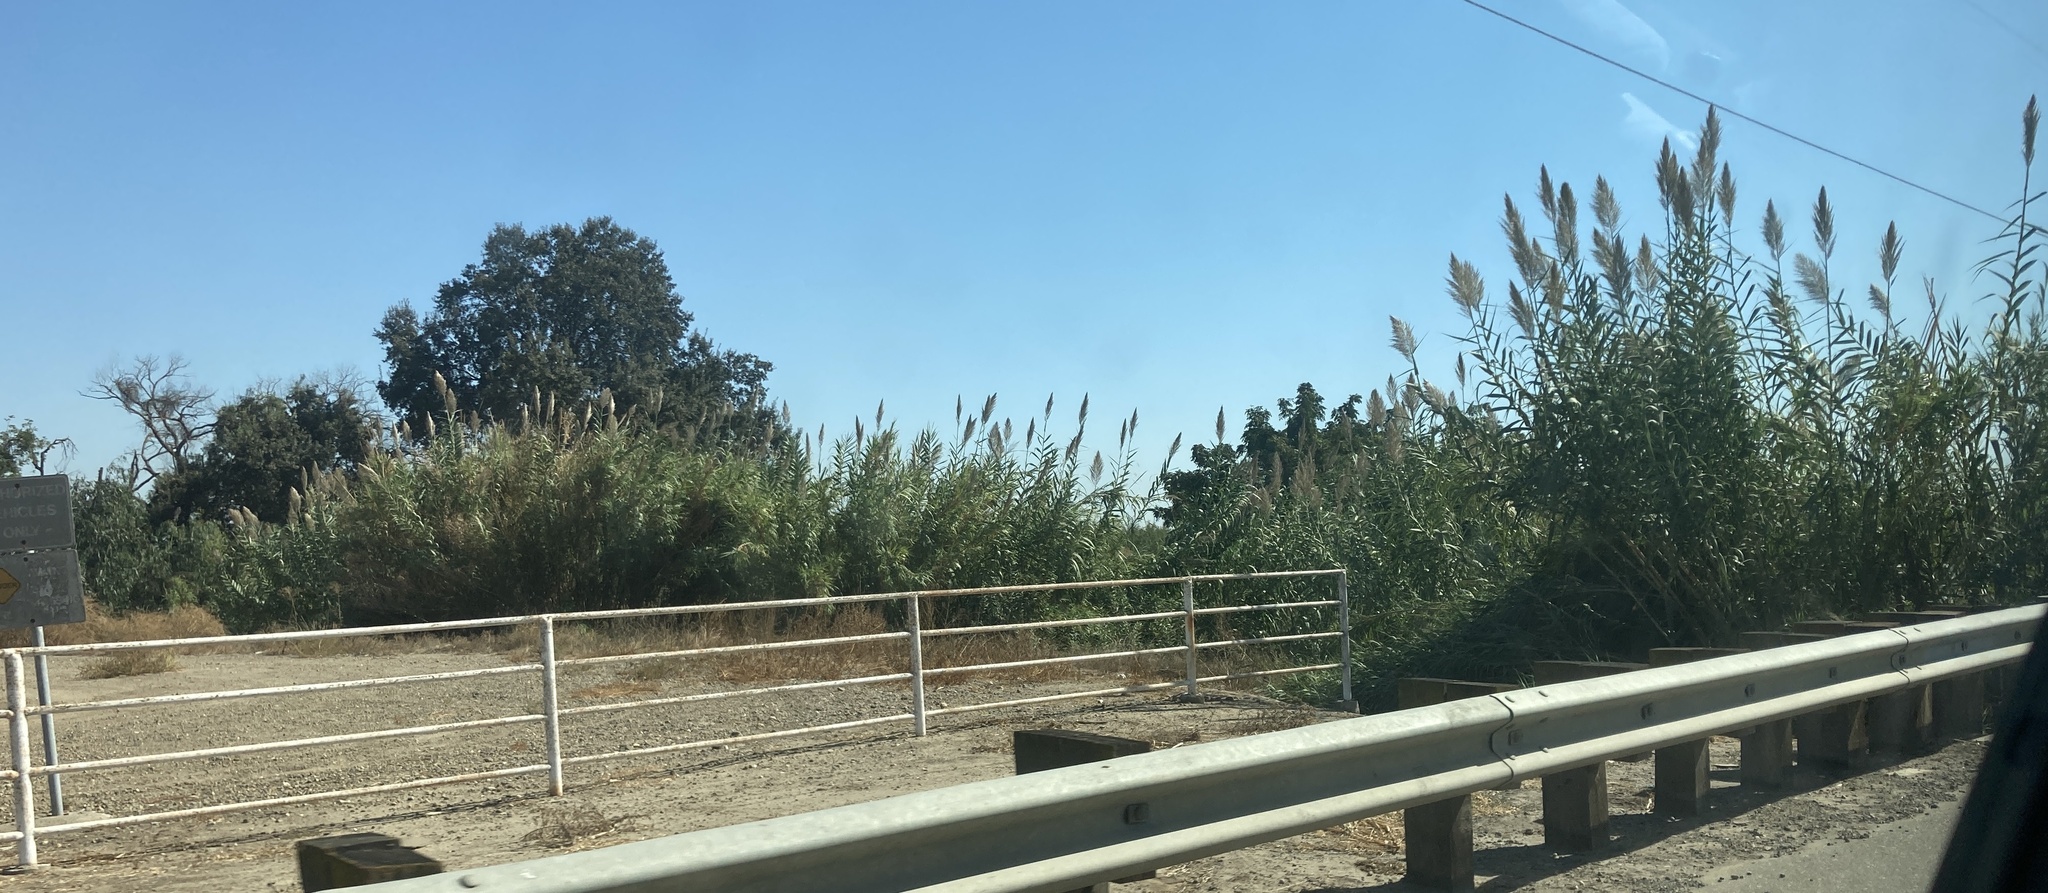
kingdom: Plantae
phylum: Tracheophyta
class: Liliopsida
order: Poales
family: Poaceae
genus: Arundo
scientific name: Arundo donax
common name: Giant reed
